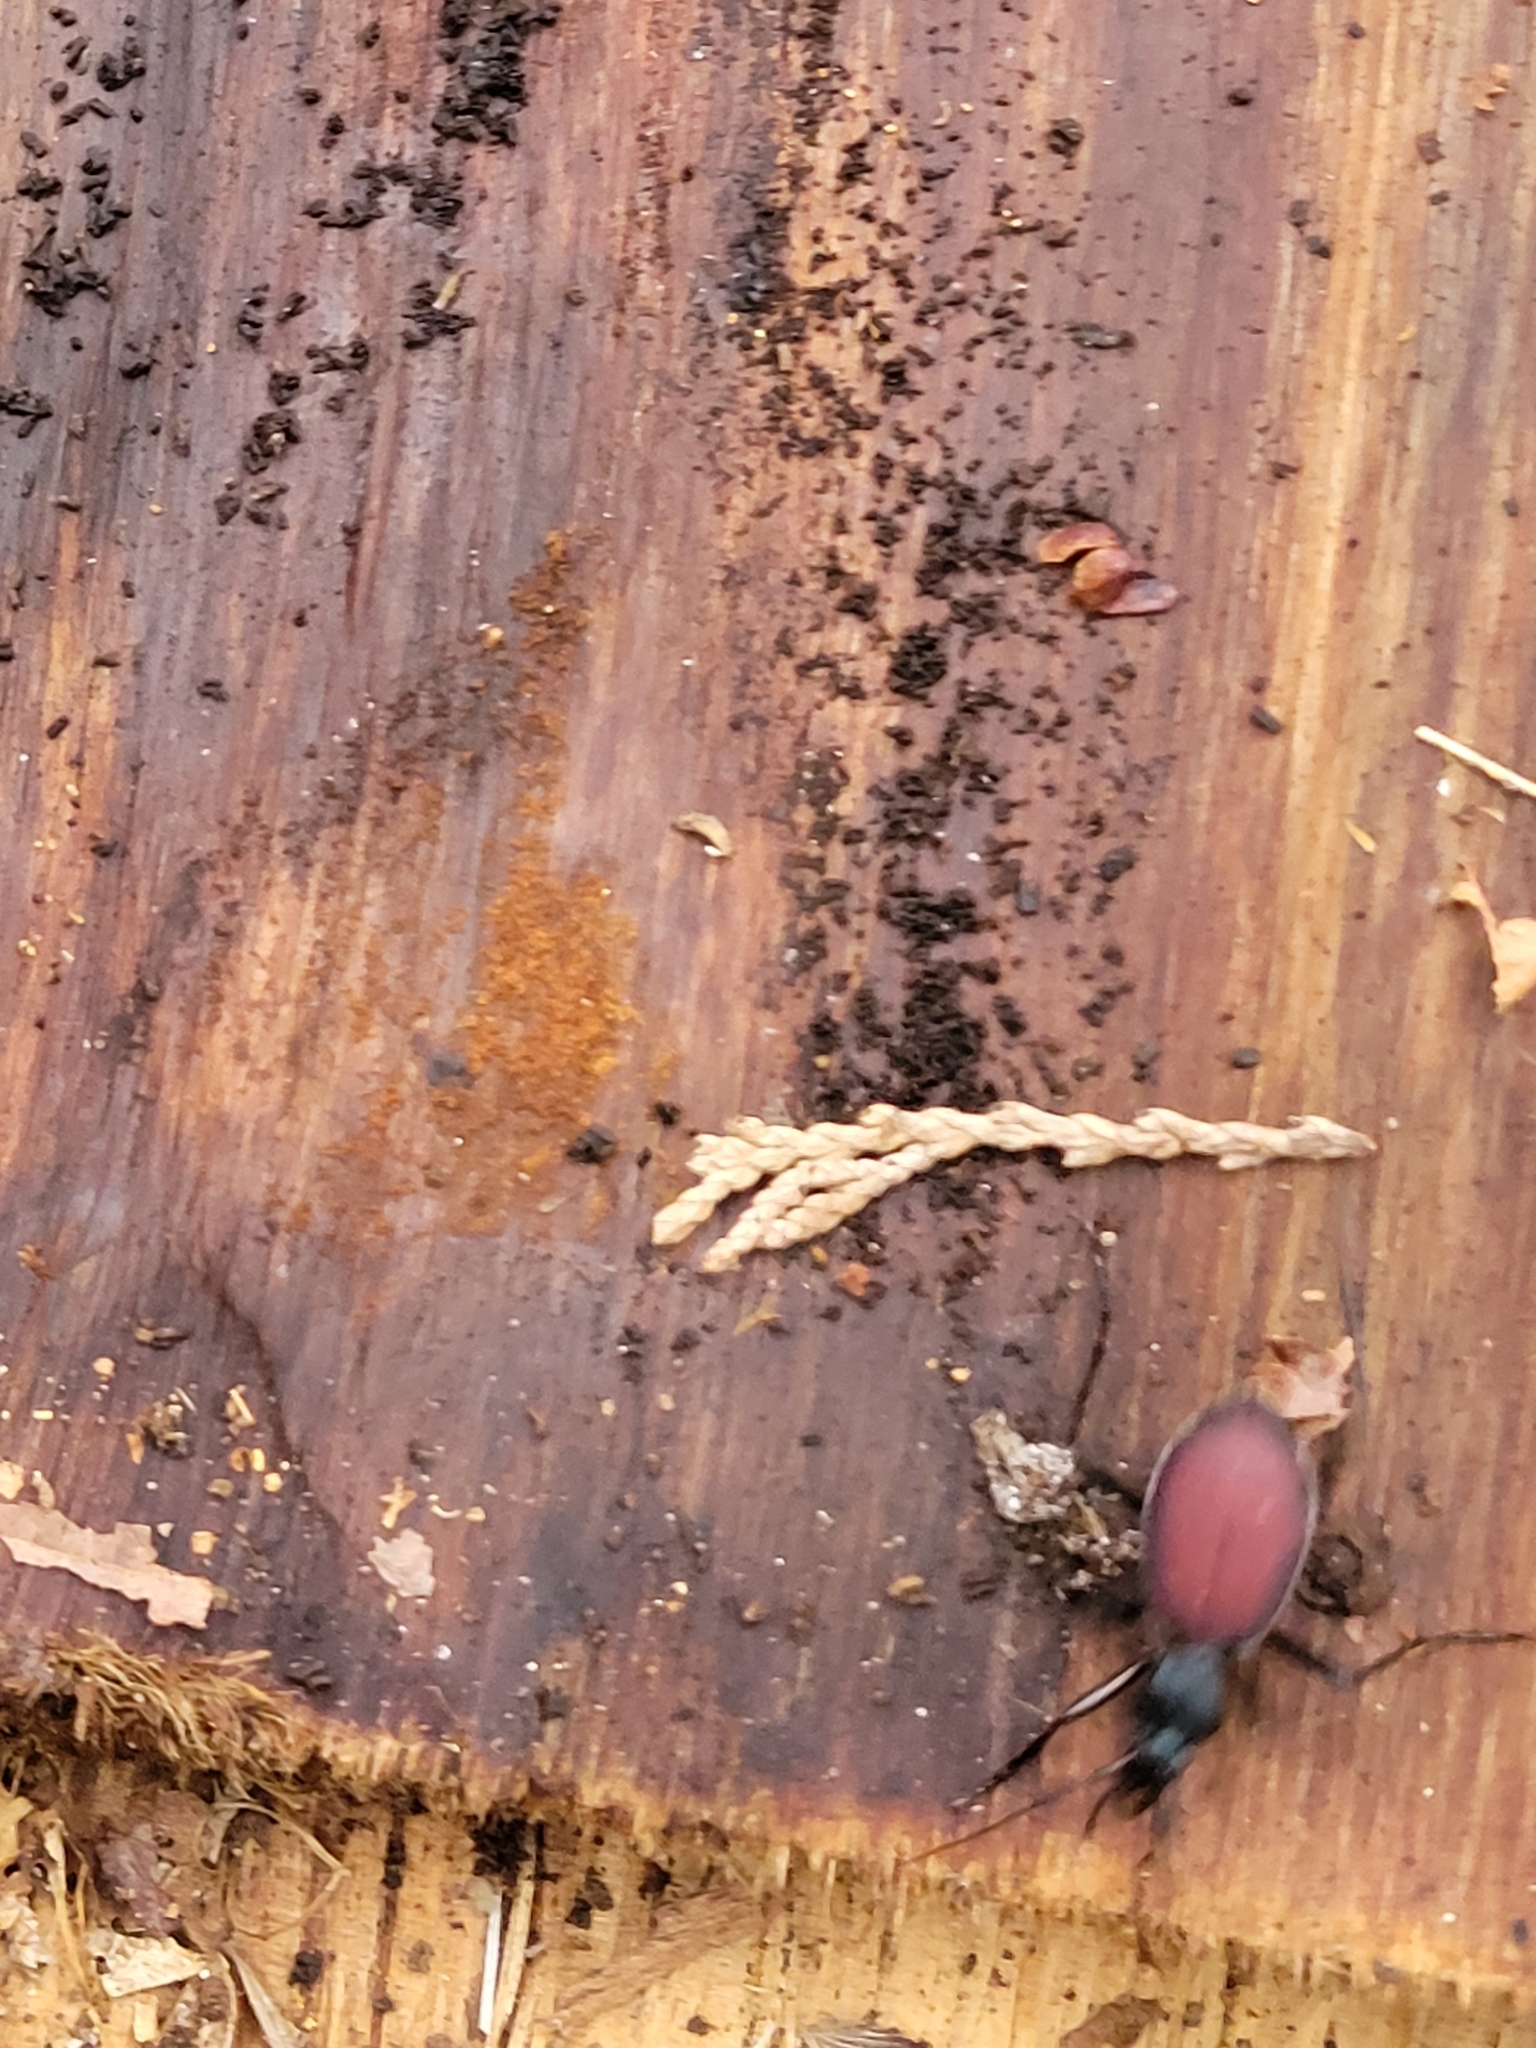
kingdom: Animalia
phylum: Arthropoda
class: Insecta
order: Coleoptera
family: Carabidae
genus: Scaphinotus
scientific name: Scaphinotus angusticollis
